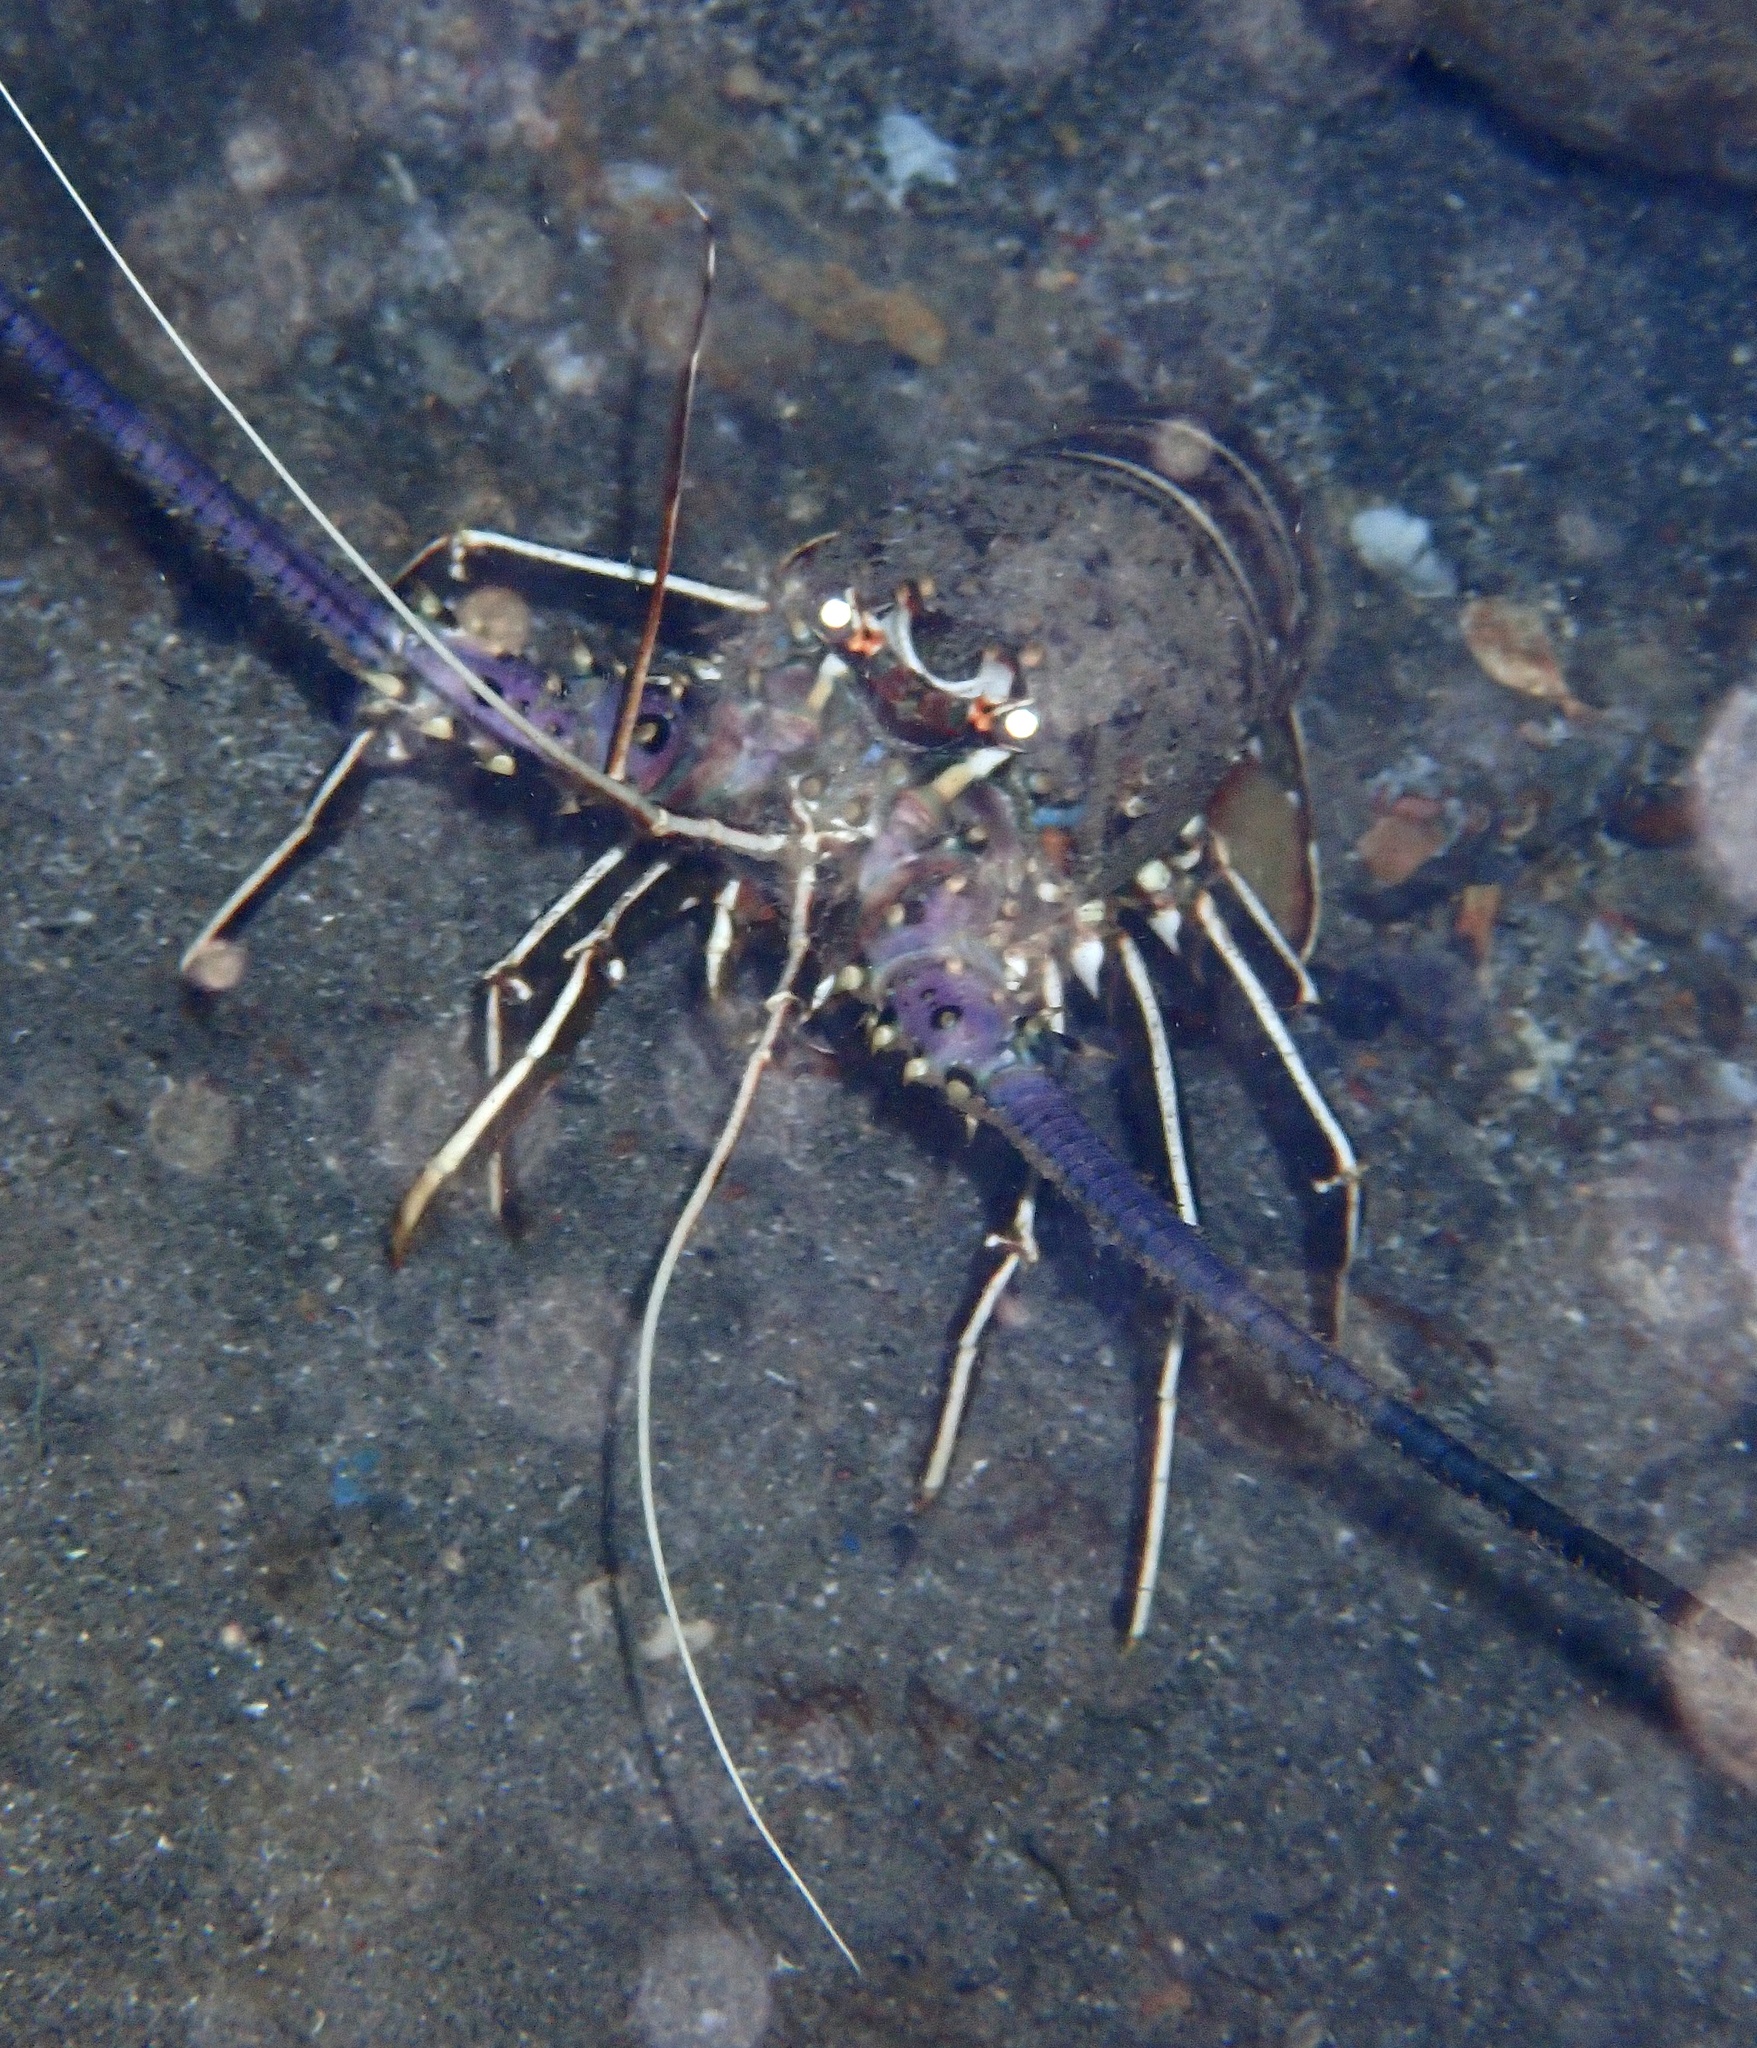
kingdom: Animalia
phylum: Arthropoda
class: Malacostraca
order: Decapoda
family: Palinuridae
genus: Panulirus
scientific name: Panulirus regius
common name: Green lobster
